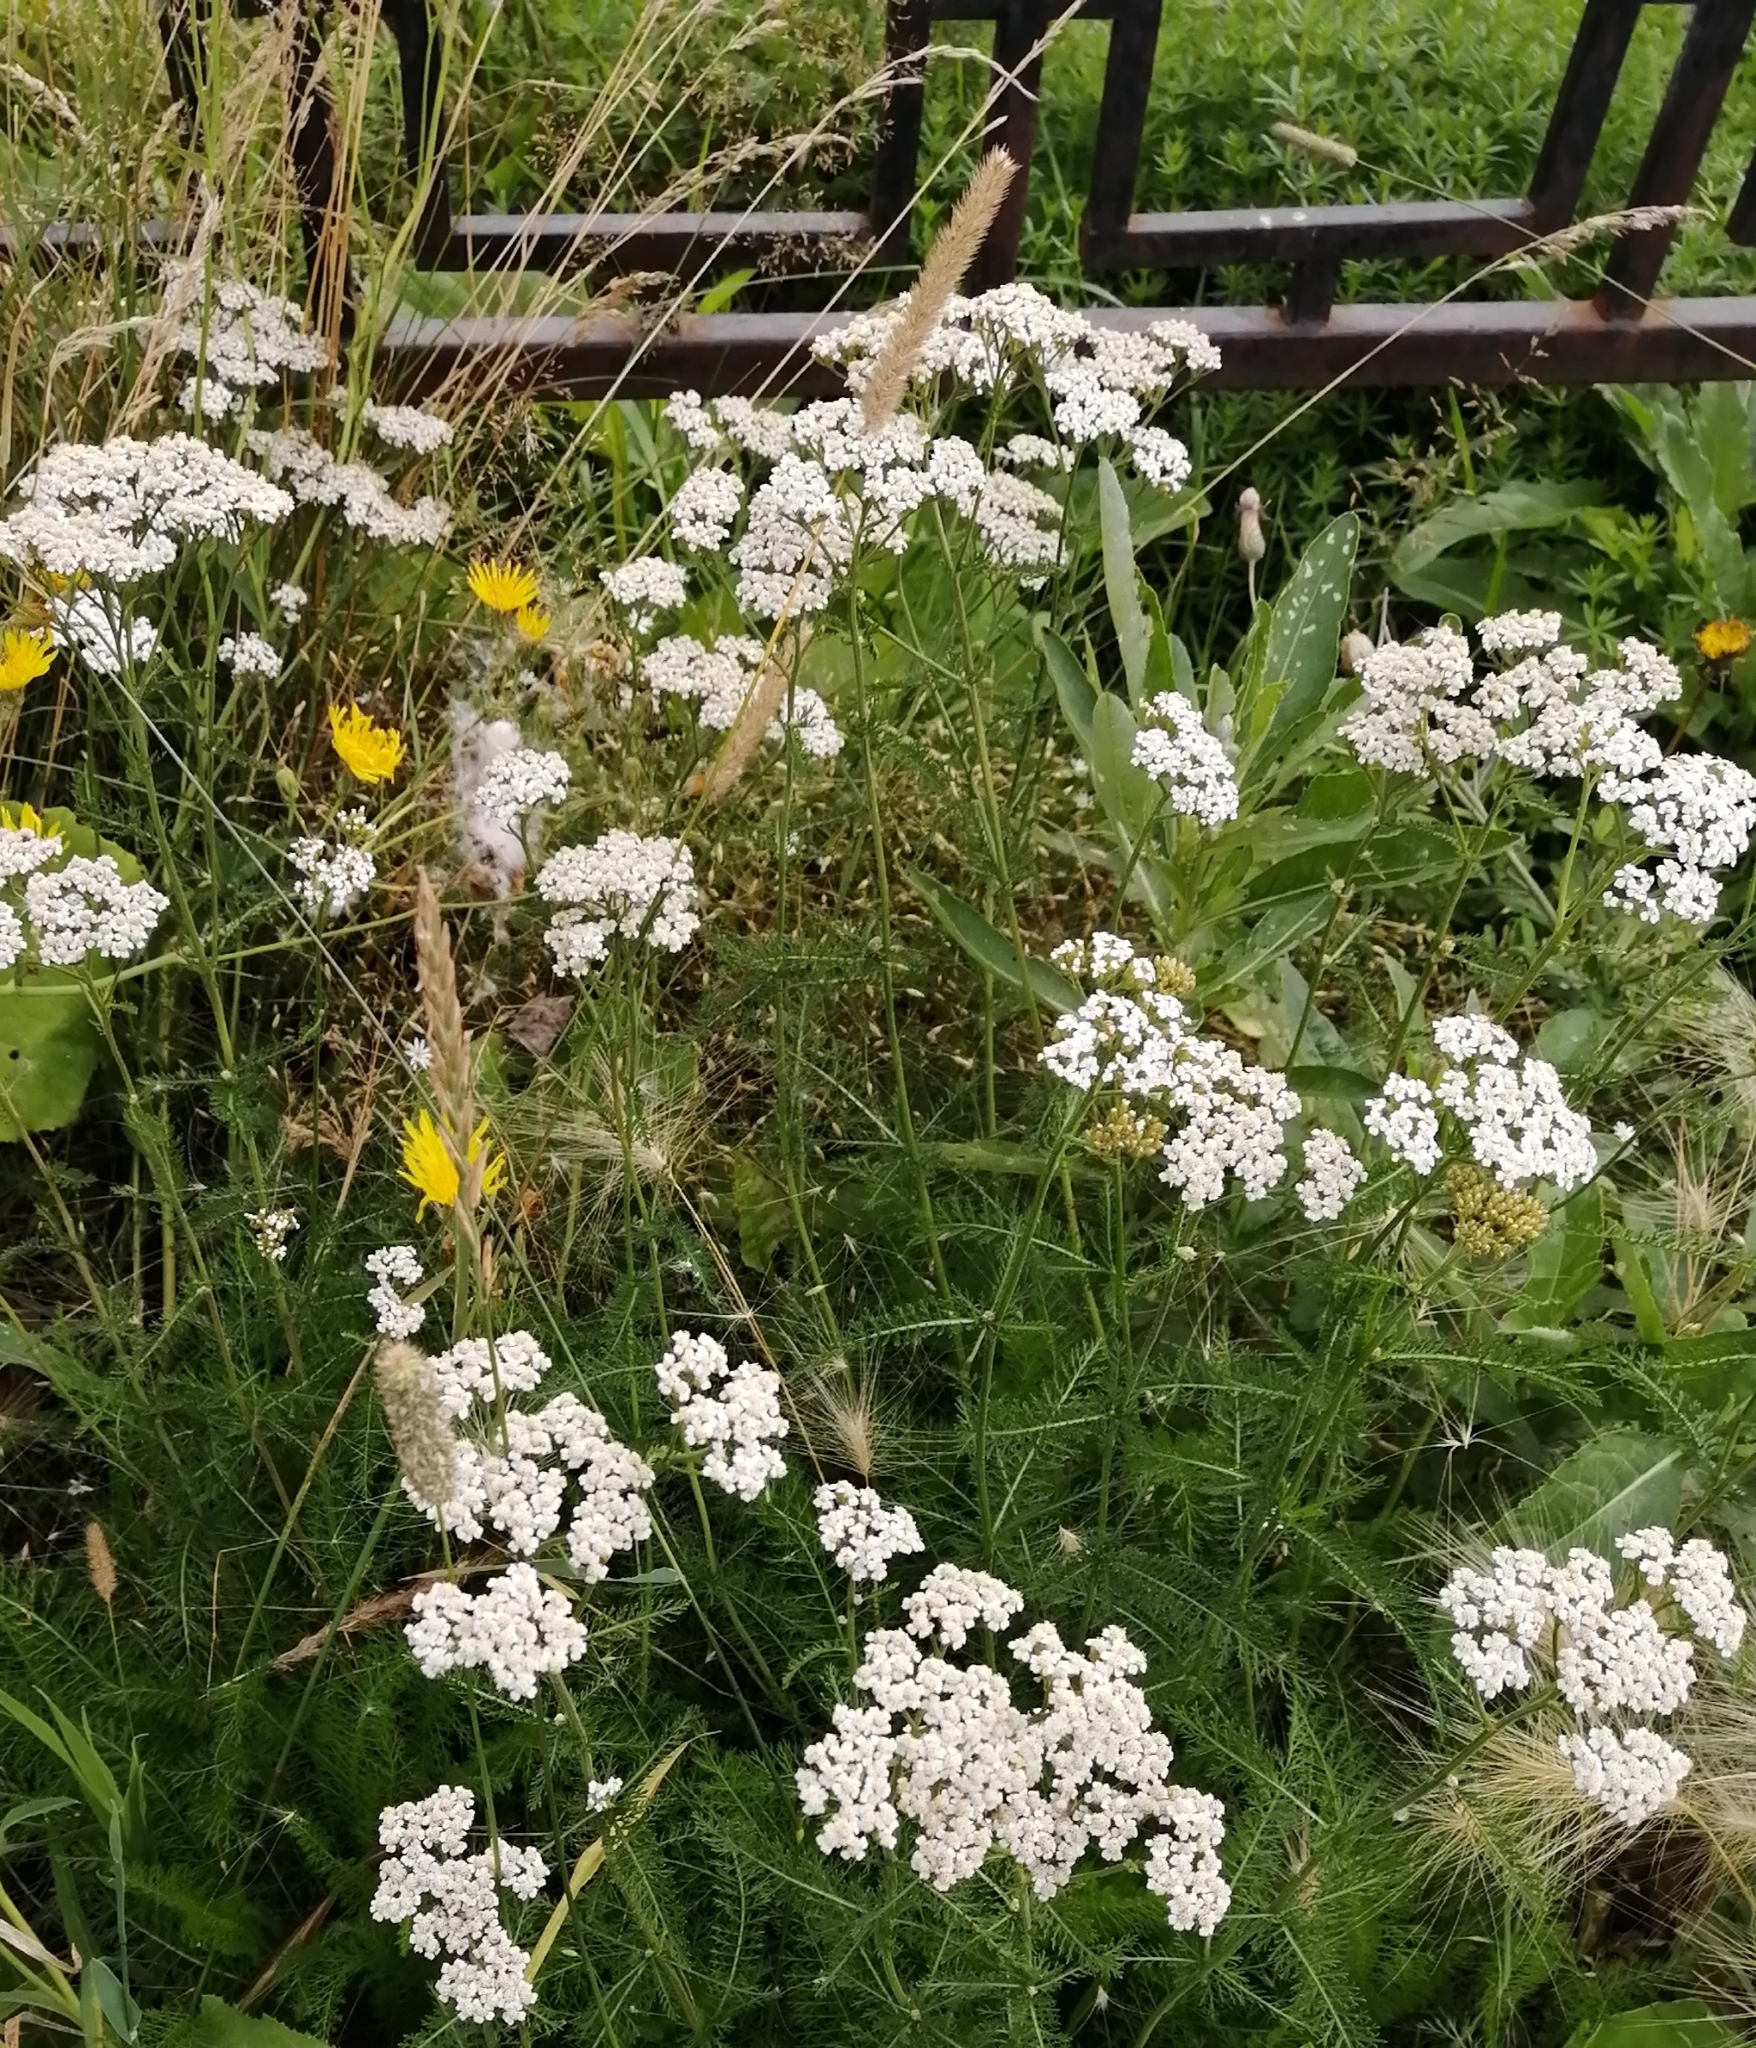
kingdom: Plantae
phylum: Tracheophyta
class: Magnoliopsida
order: Asterales
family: Asteraceae
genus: Achillea
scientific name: Achillea millefolium
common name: Yarrow
